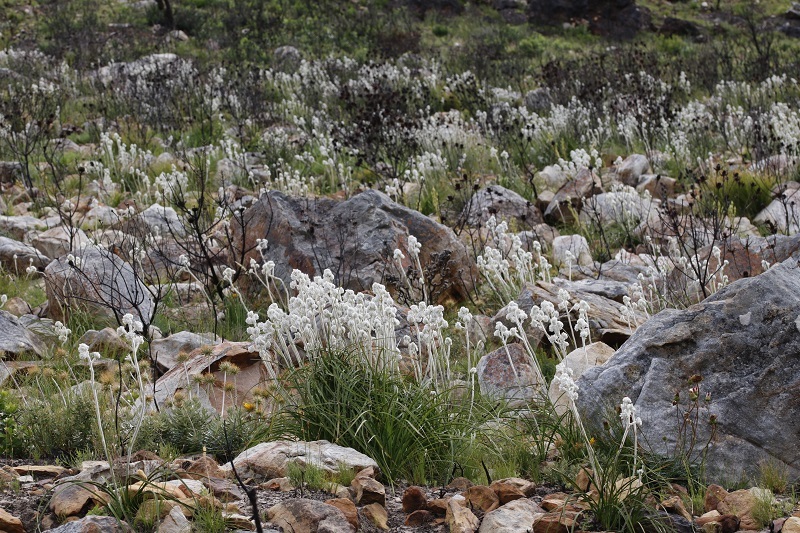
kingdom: Plantae
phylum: Tracheophyta
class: Liliopsida
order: Asparagales
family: Lanariaceae
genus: Lanaria
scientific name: Lanaria lanata
